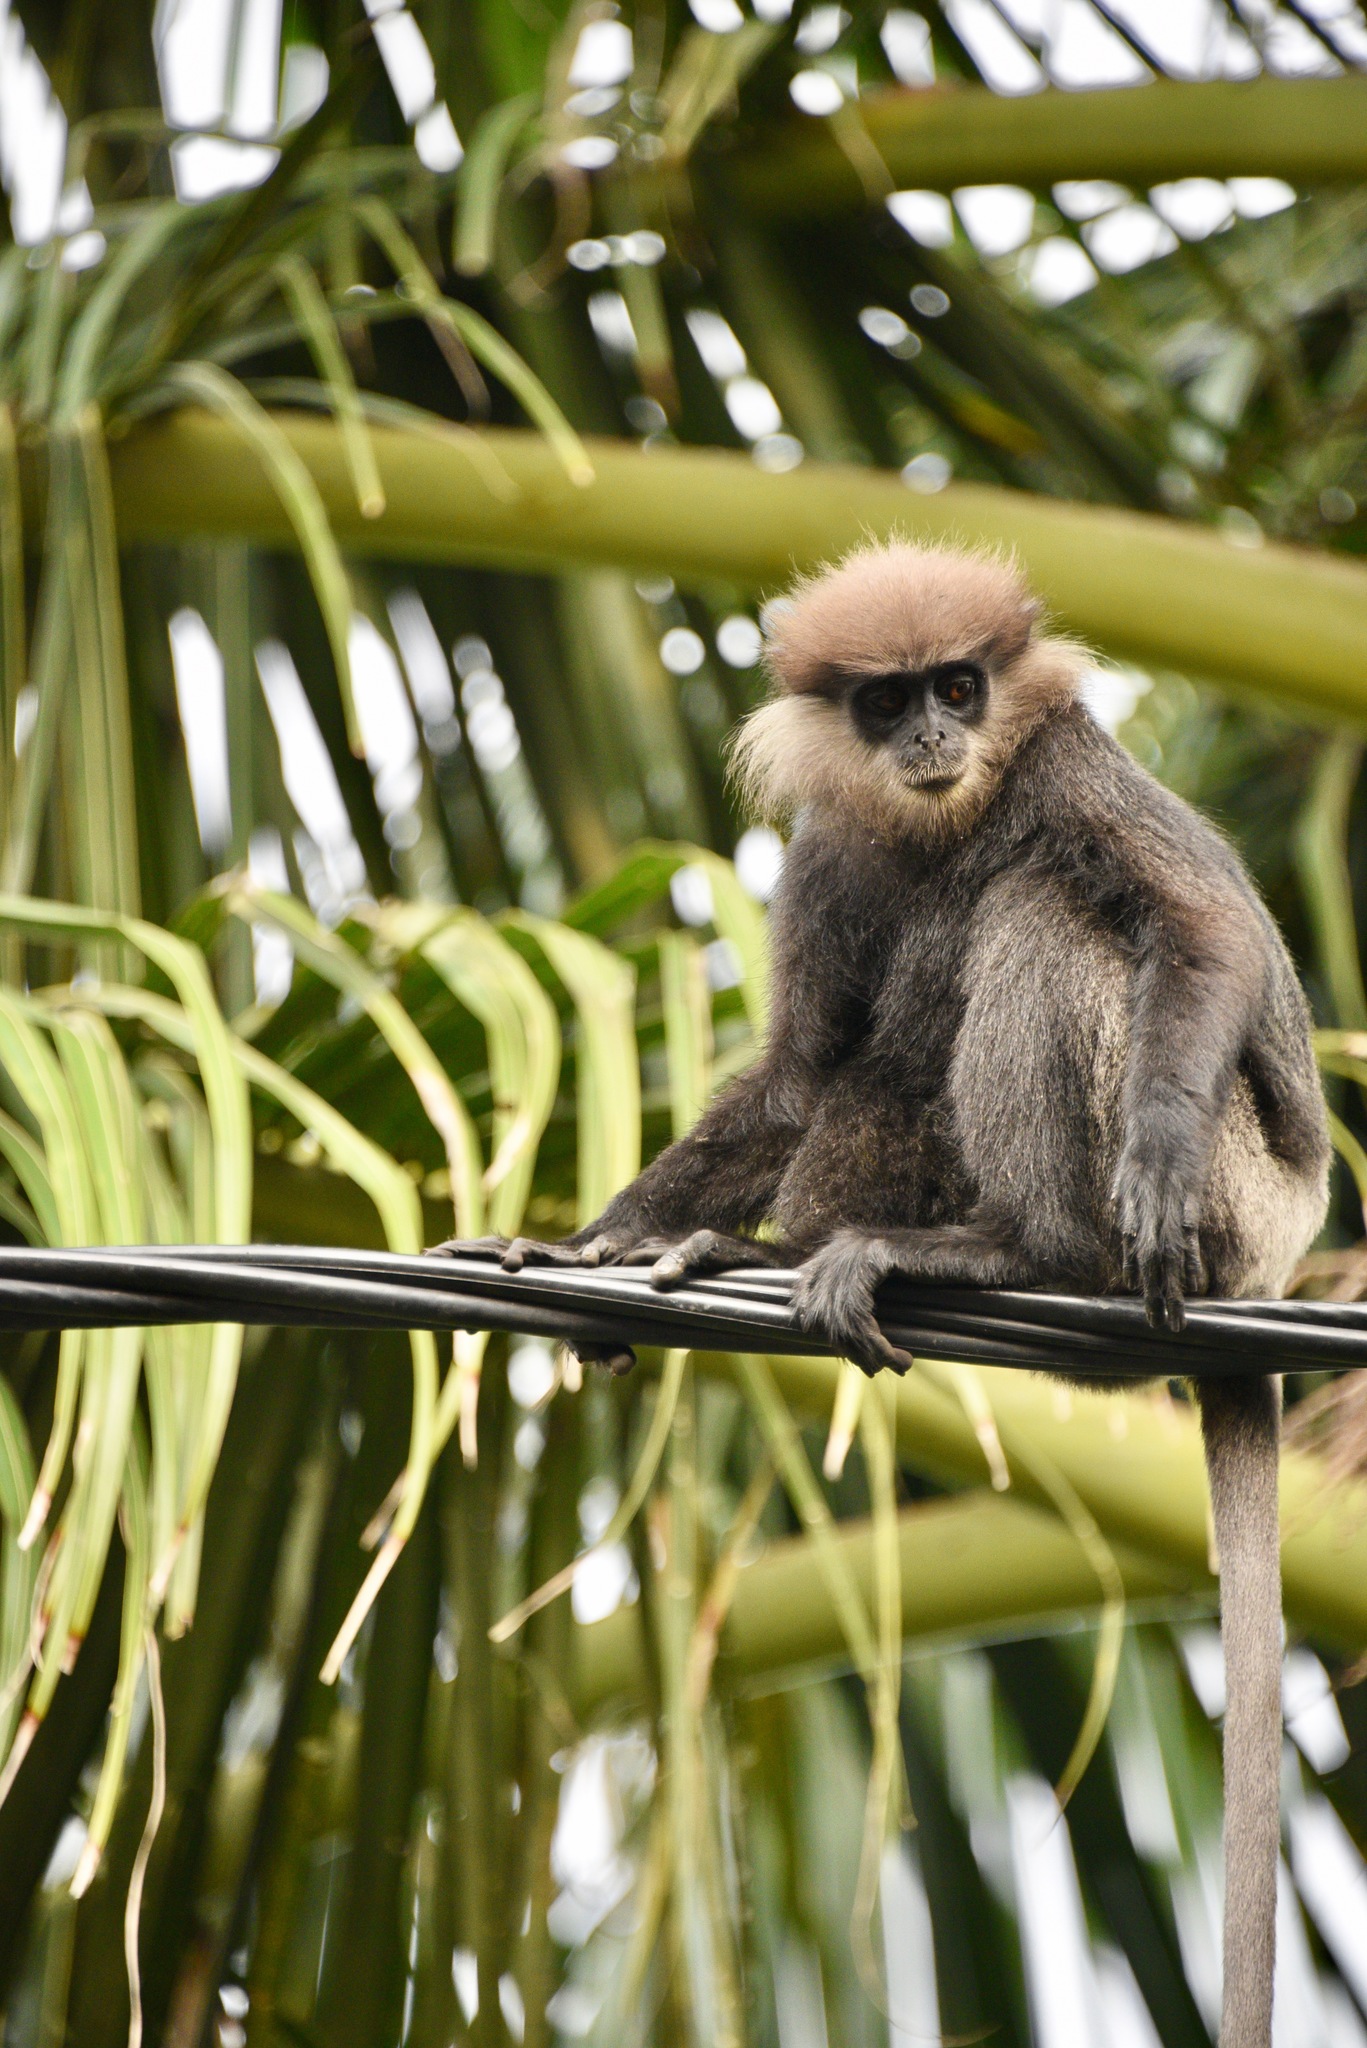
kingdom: Animalia
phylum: Chordata
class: Mammalia
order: Primates
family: Cercopithecidae
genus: Semnopithecus
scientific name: Semnopithecus vetulus
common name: Purple-faced langur
